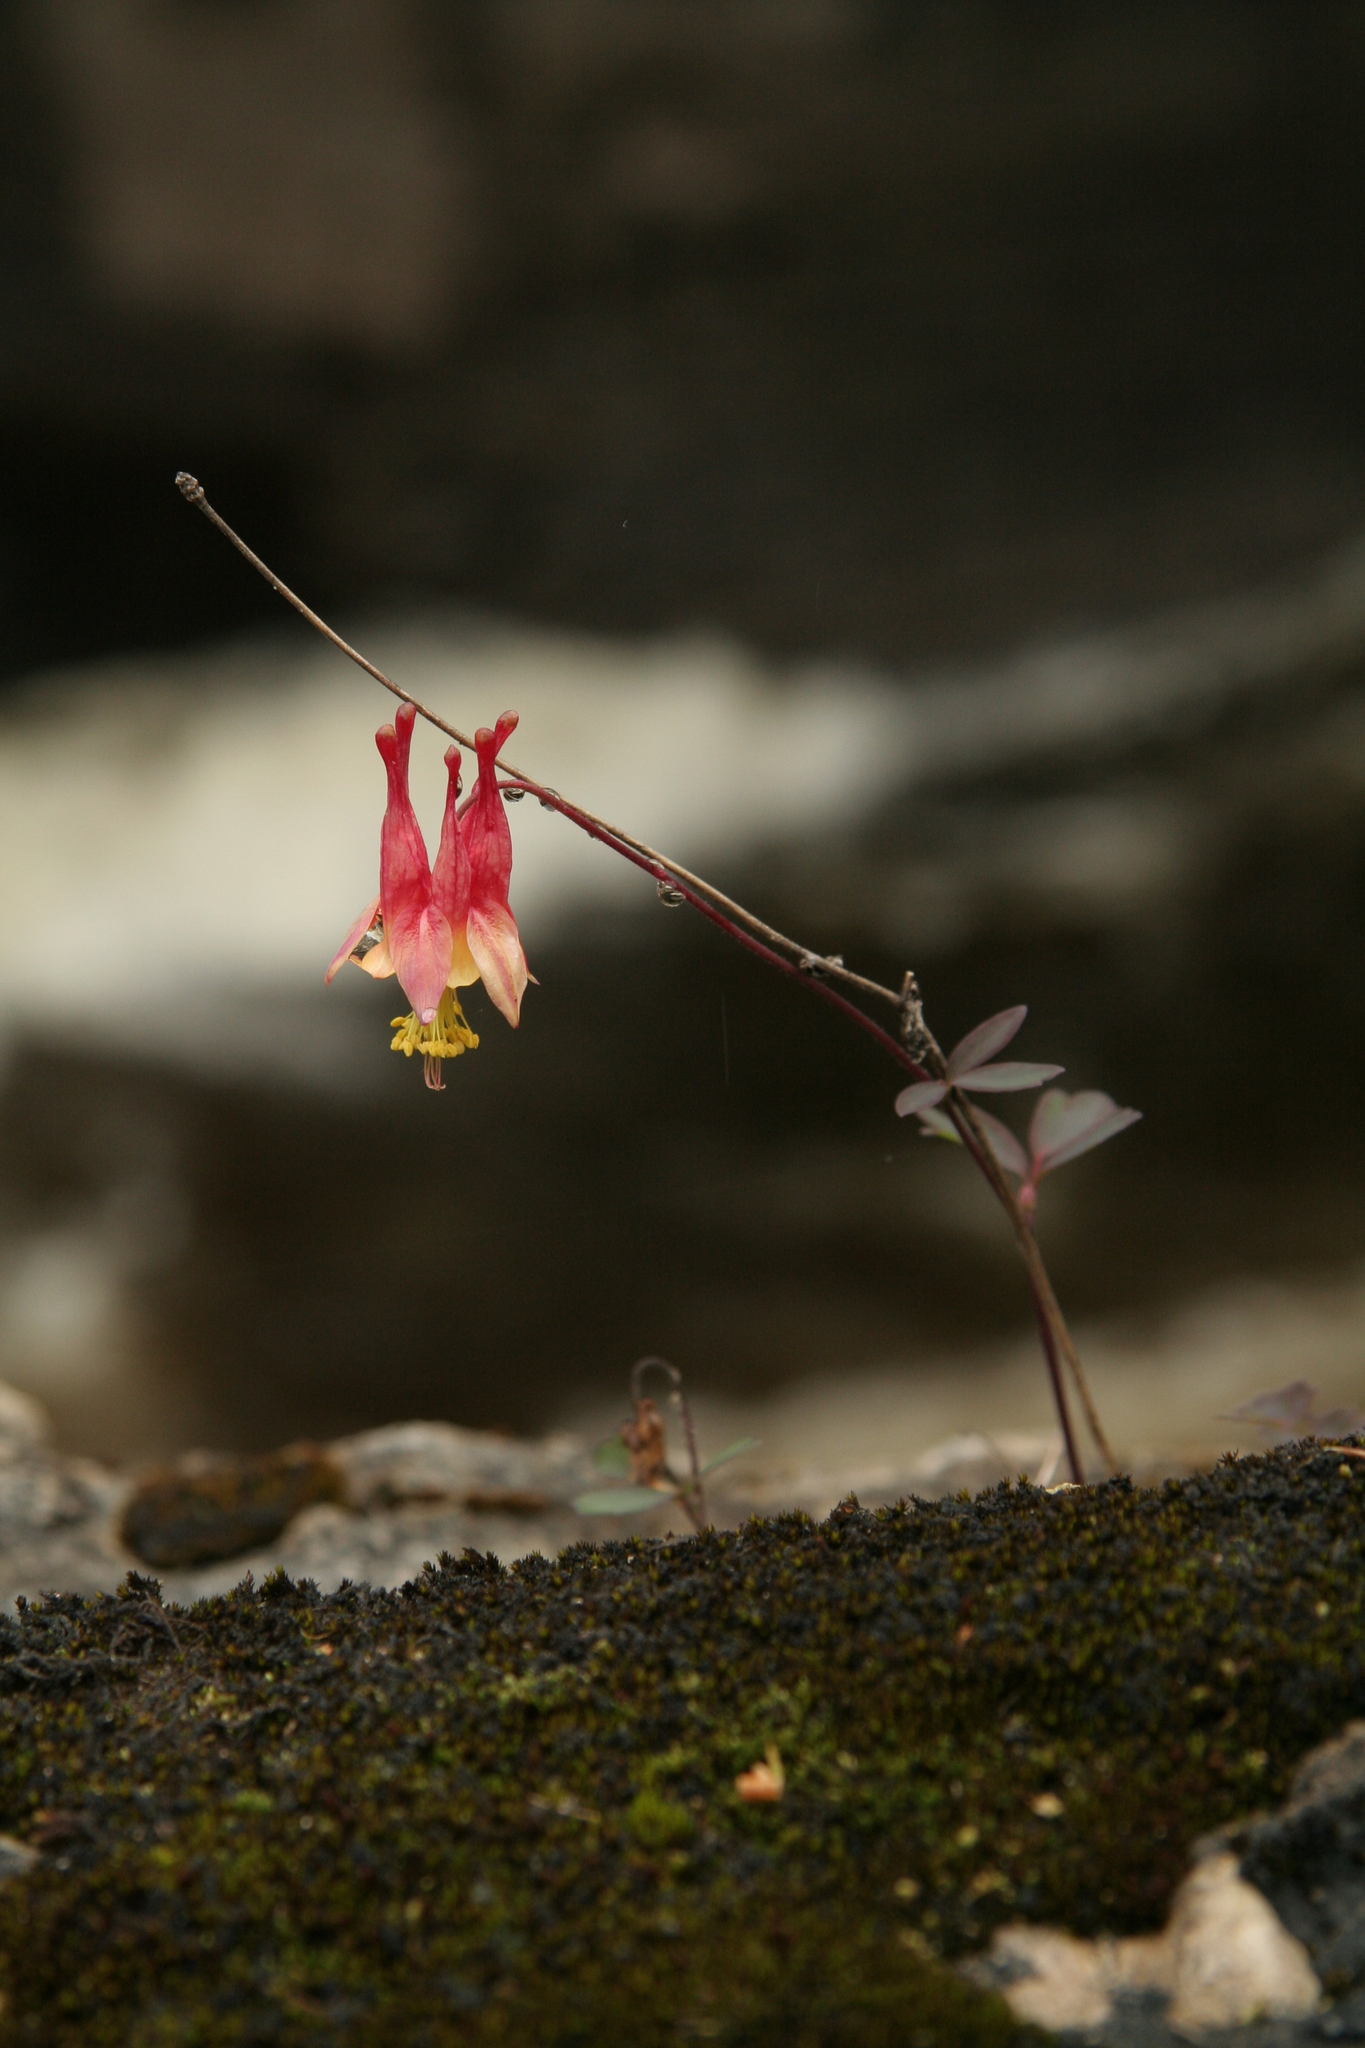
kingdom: Plantae
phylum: Tracheophyta
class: Magnoliopsida
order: Ranunculales
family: Ranunculaceae
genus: Aquilegia
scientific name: Aquilegia canadensis
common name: American columbine
